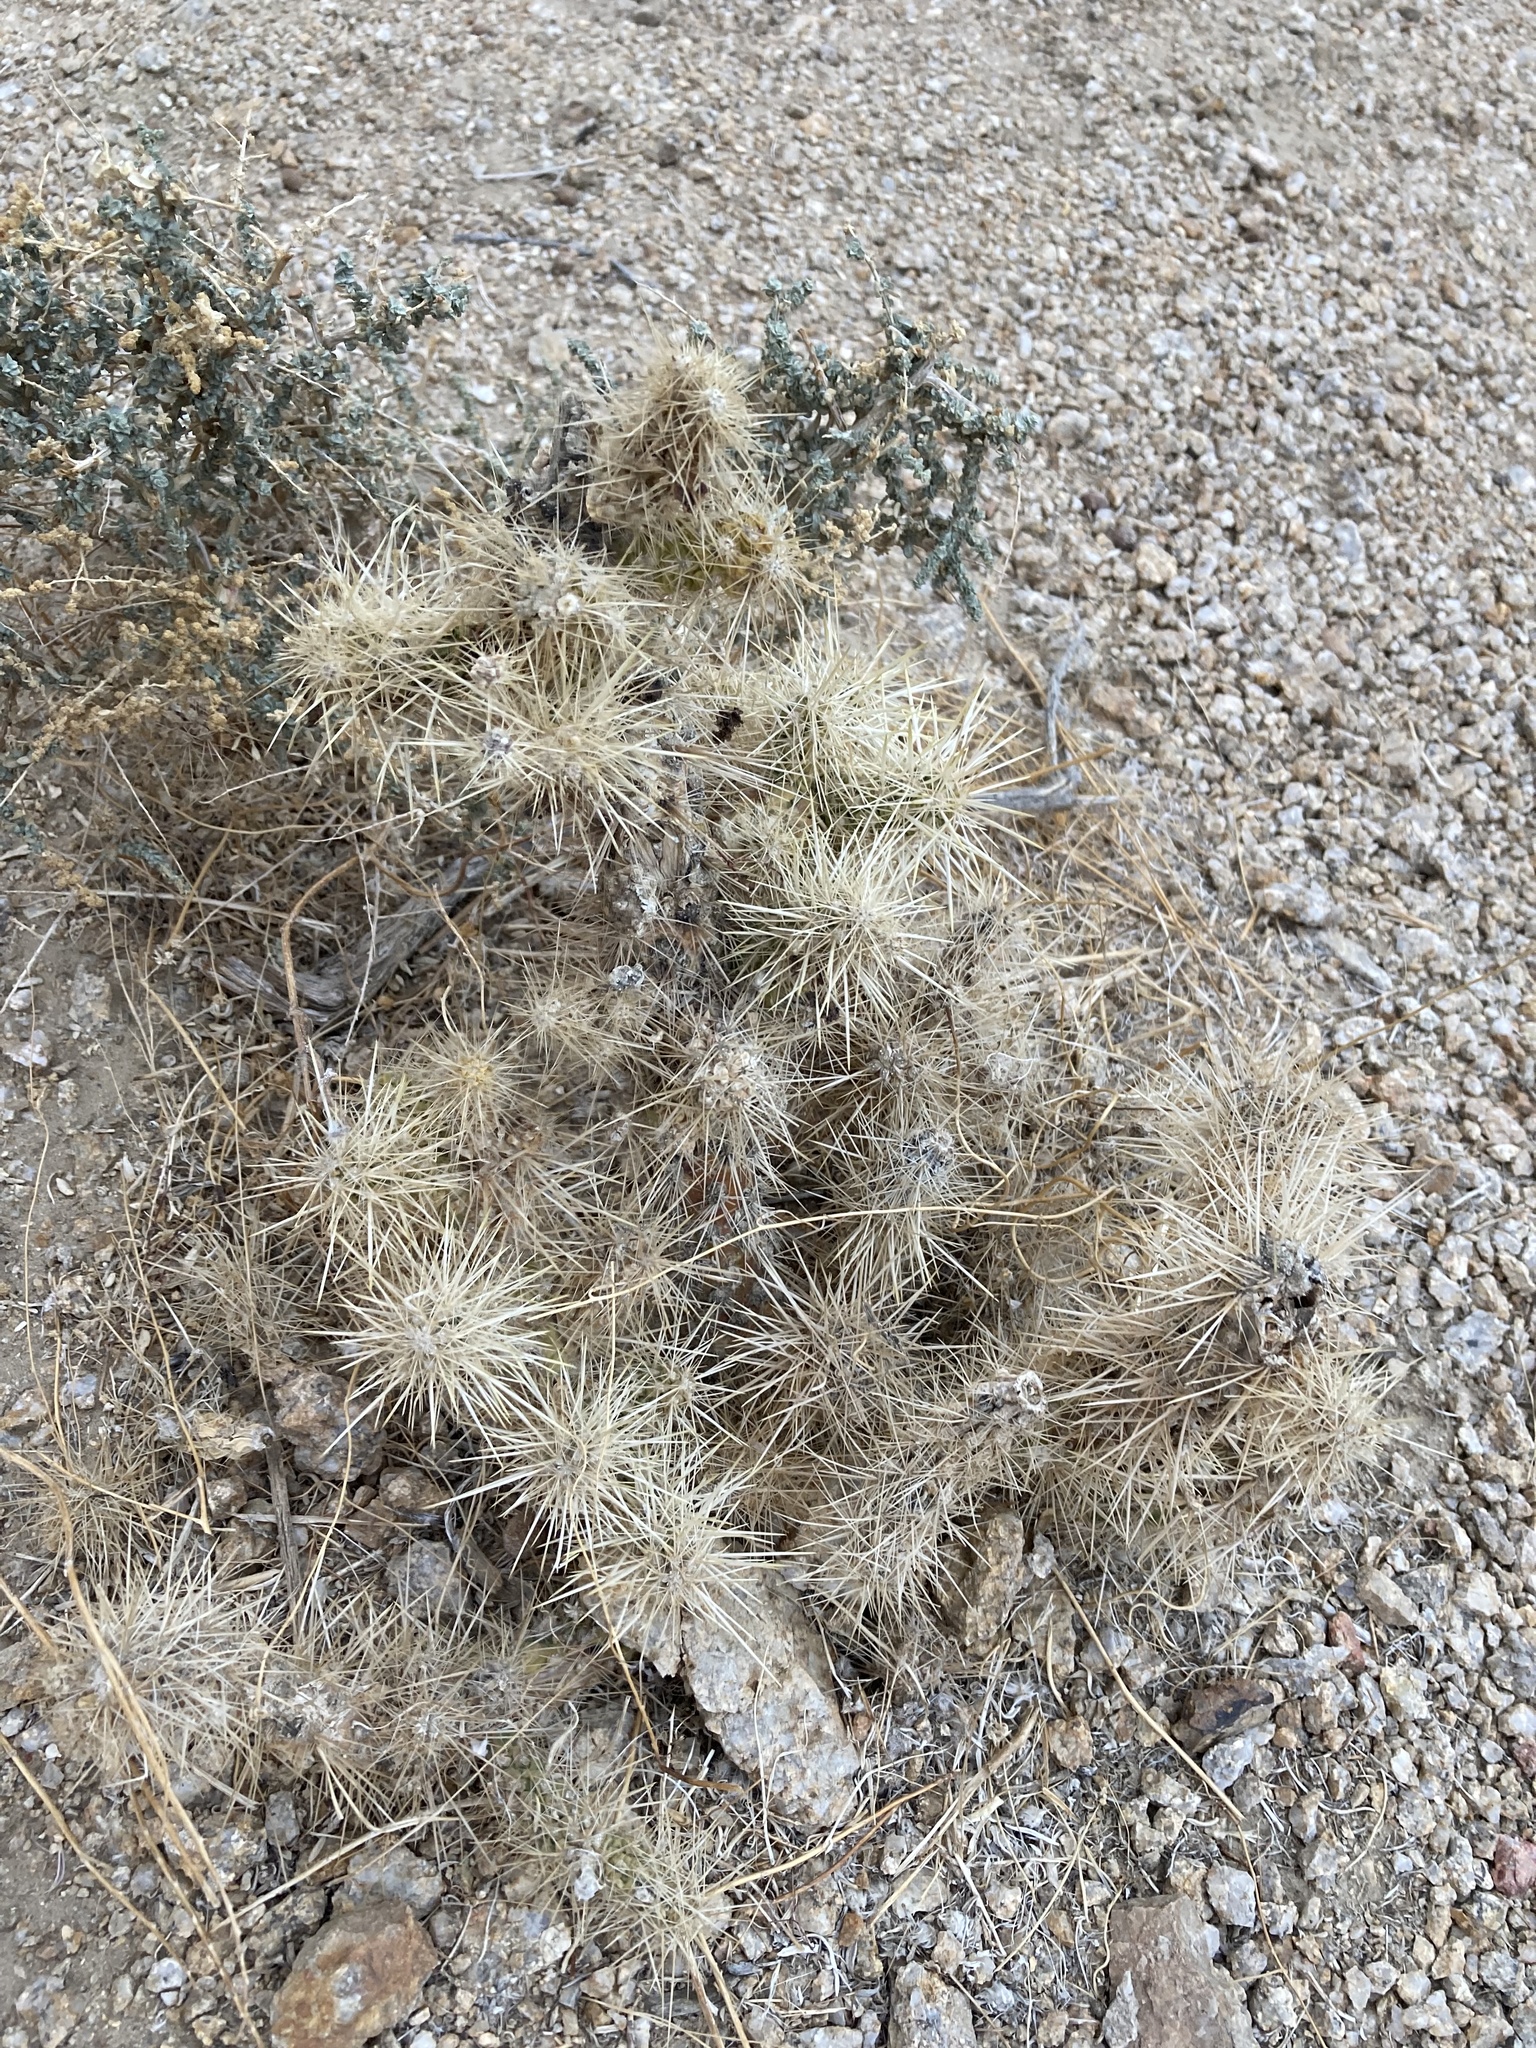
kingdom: Plantae
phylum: Tracheophyta
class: Magnoliopsida
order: Caryophyllales
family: Cactaceae
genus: Cylindropuntia
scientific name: Cylindropuntia echinocarpa
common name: Ground cholla
